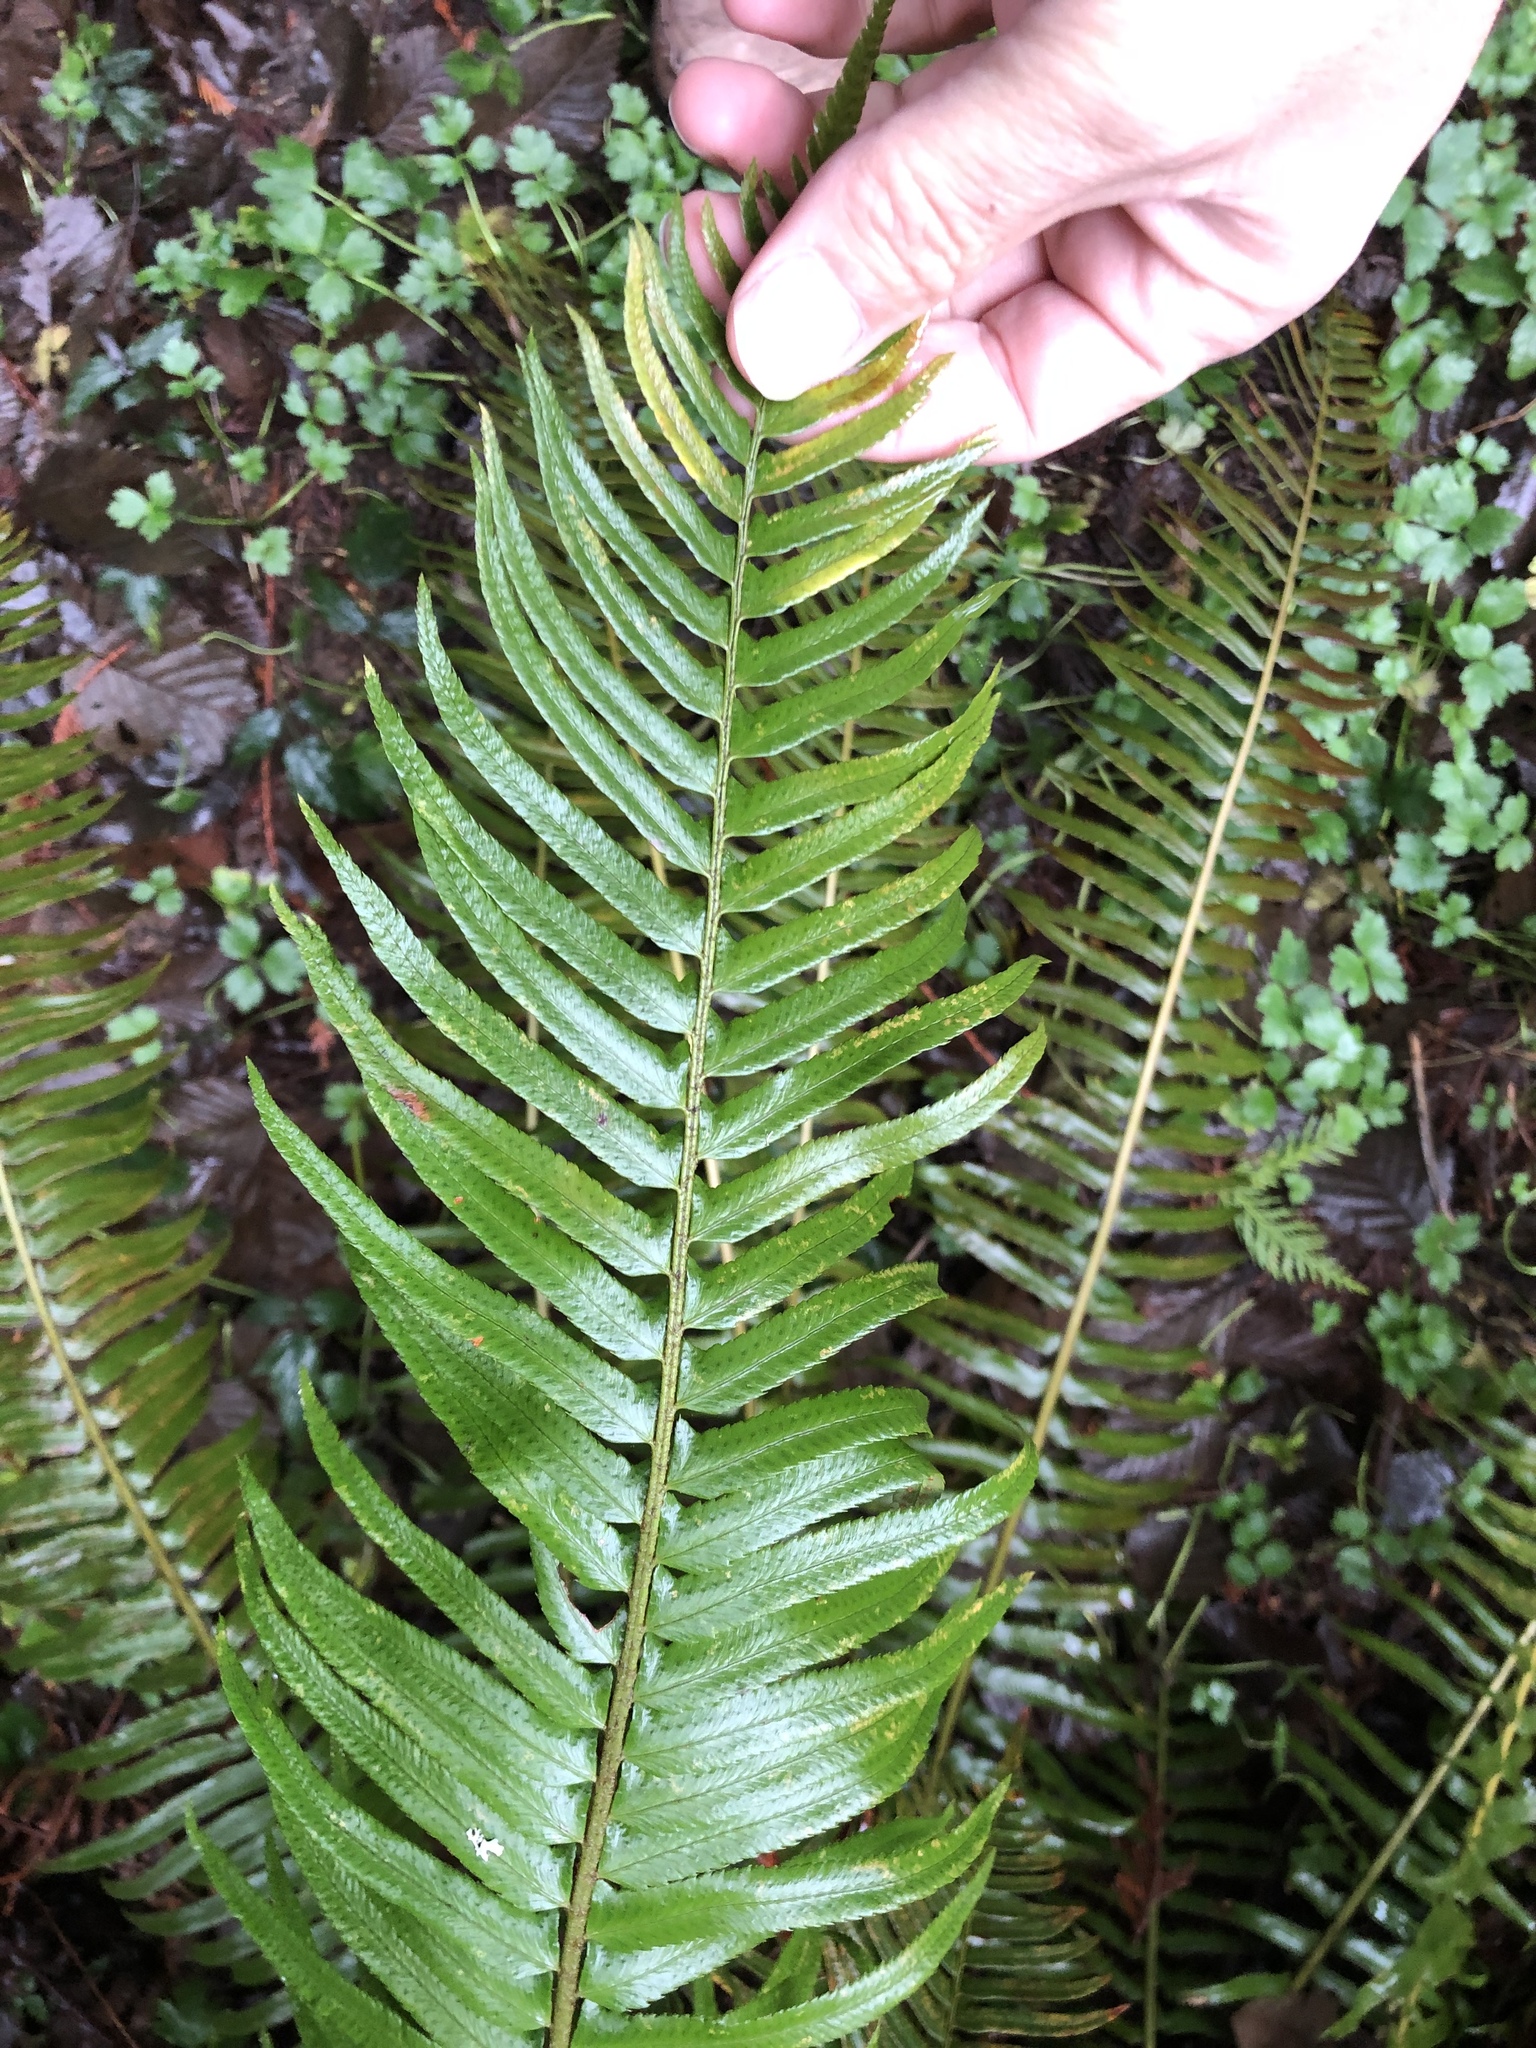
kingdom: Plantae
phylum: Tracheophyta
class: Polypodiopsida
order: Polypodiales
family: Dryopteridaceae
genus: Polystichum
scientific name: Polystichum munitum
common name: Western sword-fern
